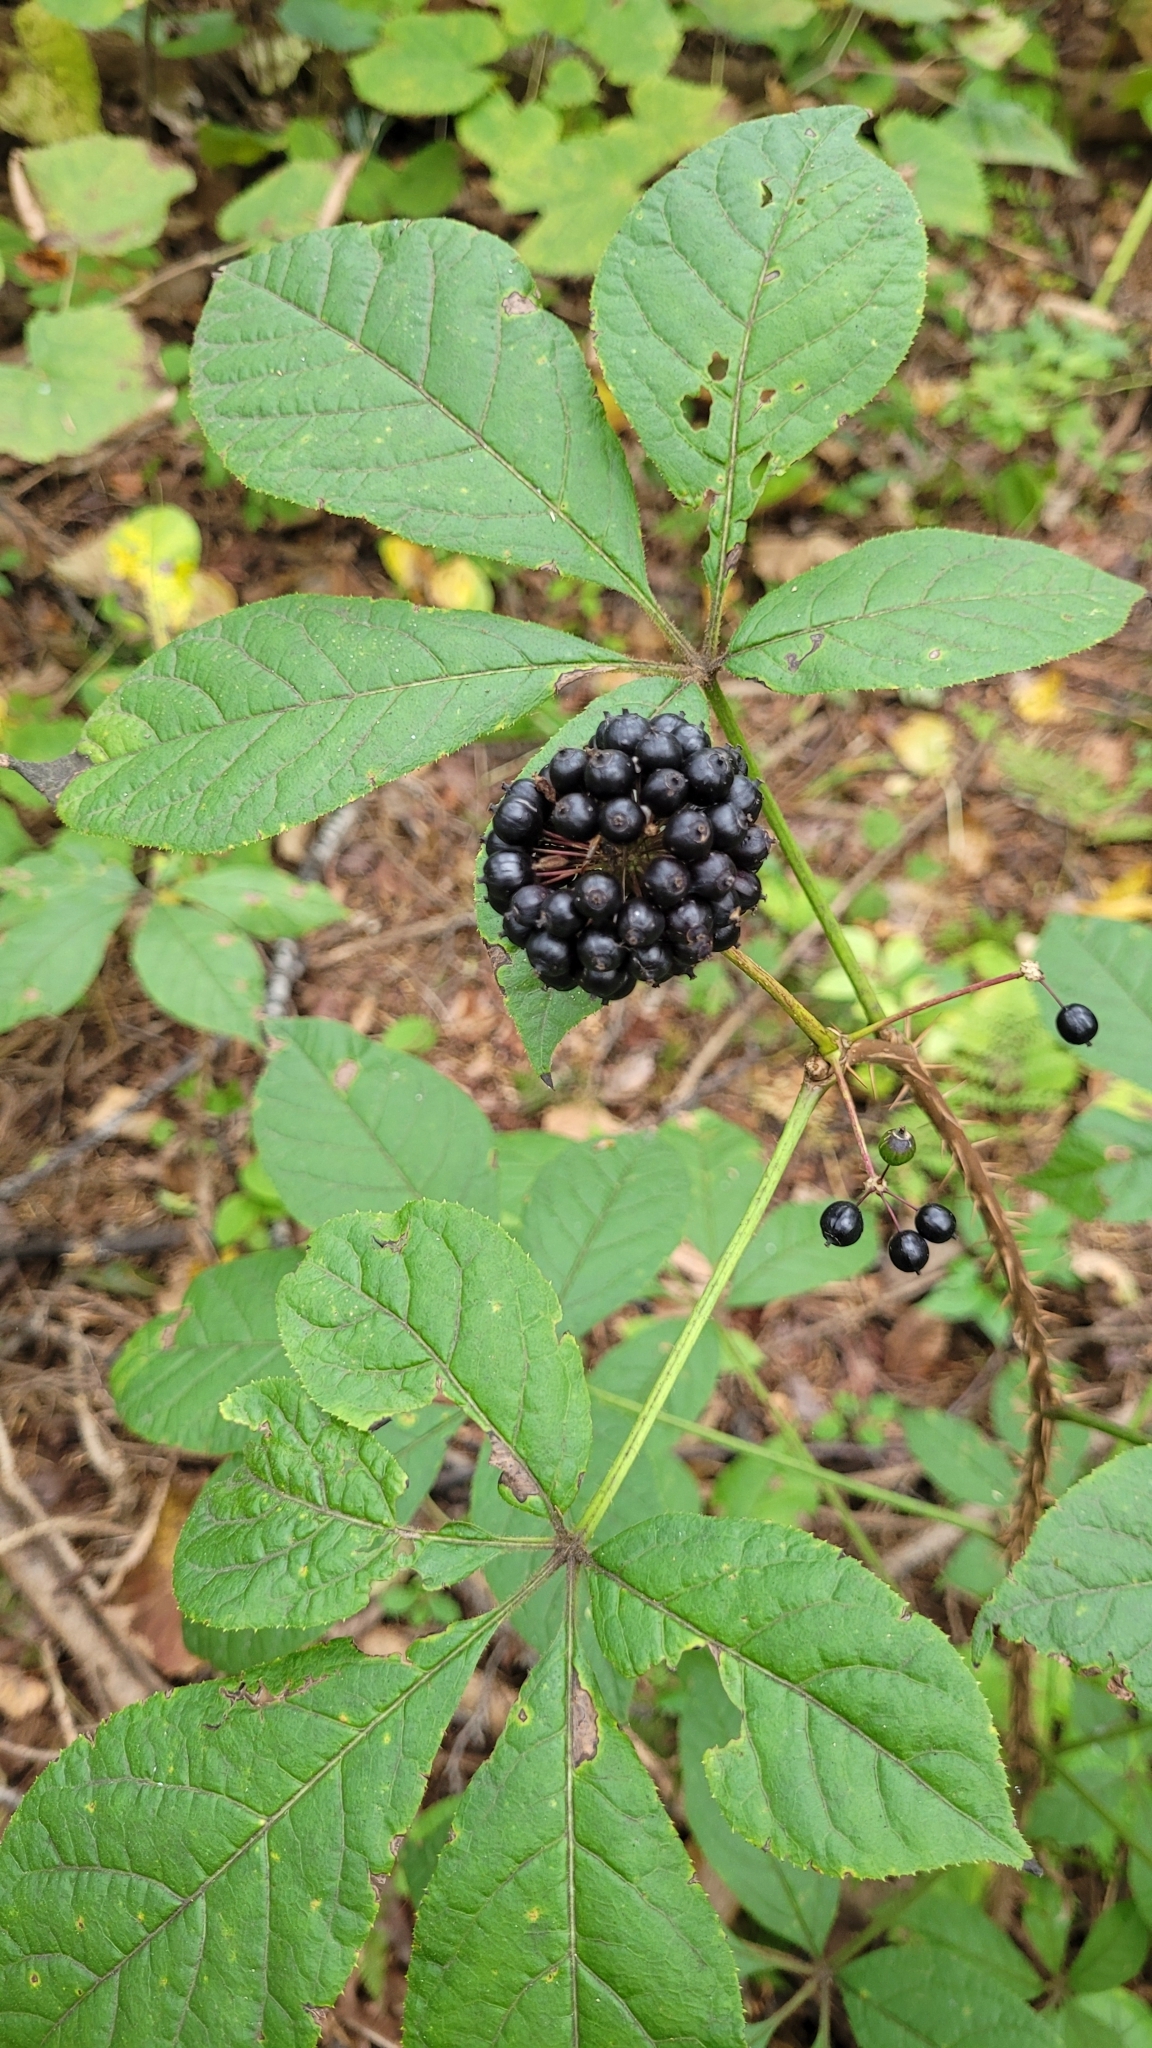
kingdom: Plantae
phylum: Tracheophyta
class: Magnoliopsida
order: Apiales
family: Araliaceae
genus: Eleutherococcus
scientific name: Eleutherococcus senticosus
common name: Siberian-ginseng
